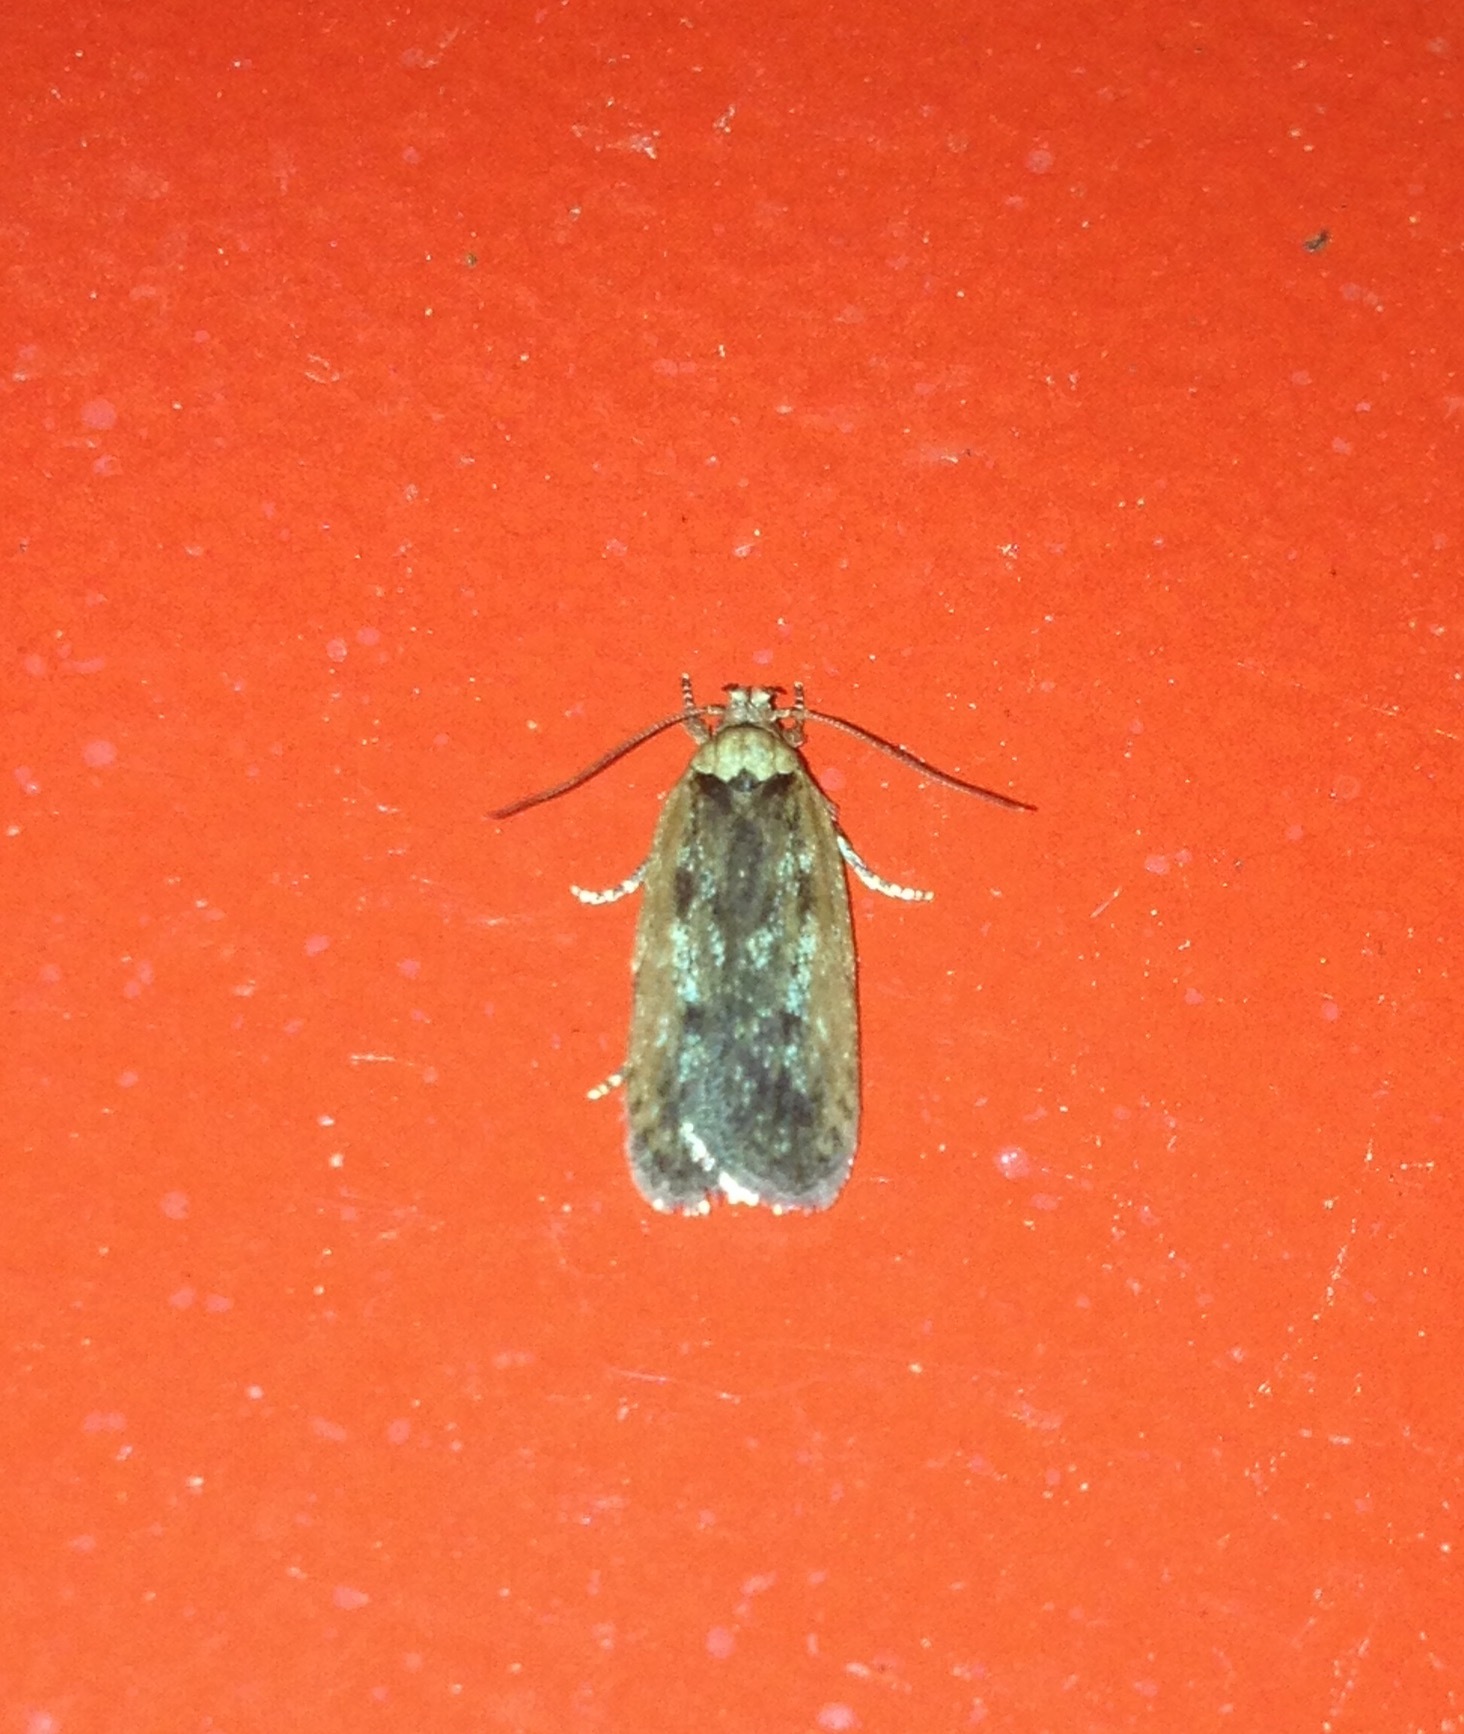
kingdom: Animalia
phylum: Arthropoda
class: Insecta
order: Lepidoptera
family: Depressariidae
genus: Depressaria
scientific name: Depressaria pimpinellae
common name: Pimpinel flat-body
